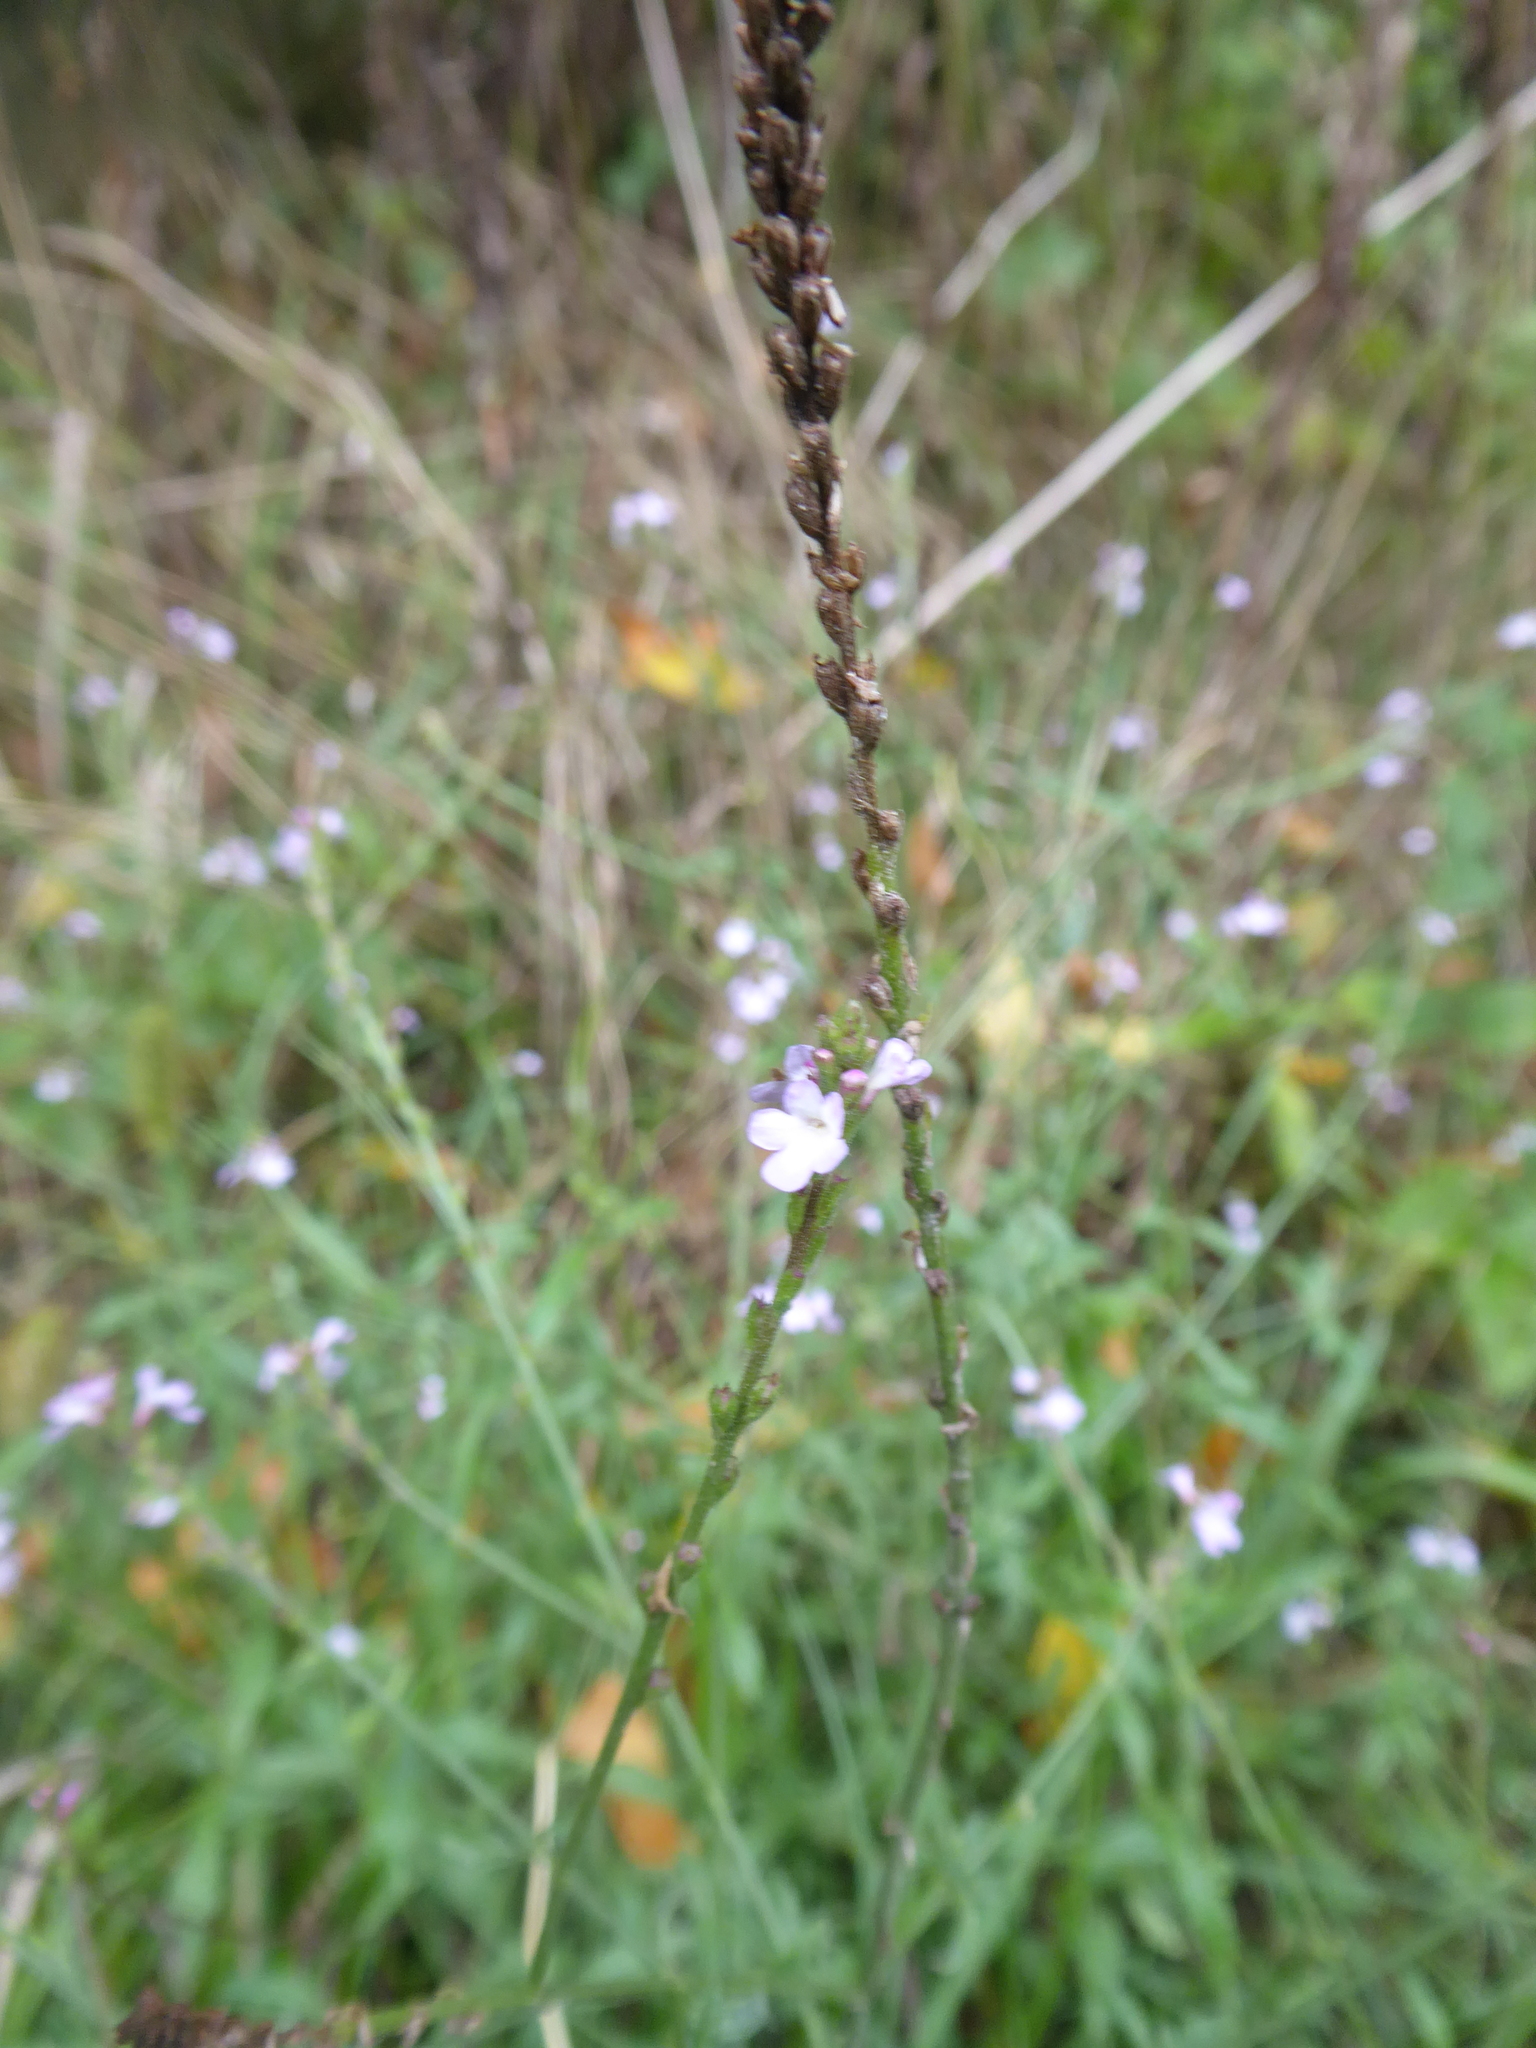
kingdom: Plantae
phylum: Tracheophyta
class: Magnoliopsida
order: Lamiales
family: Verbenaceae
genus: Verbena
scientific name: Verbena officinalis
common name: Vervain
